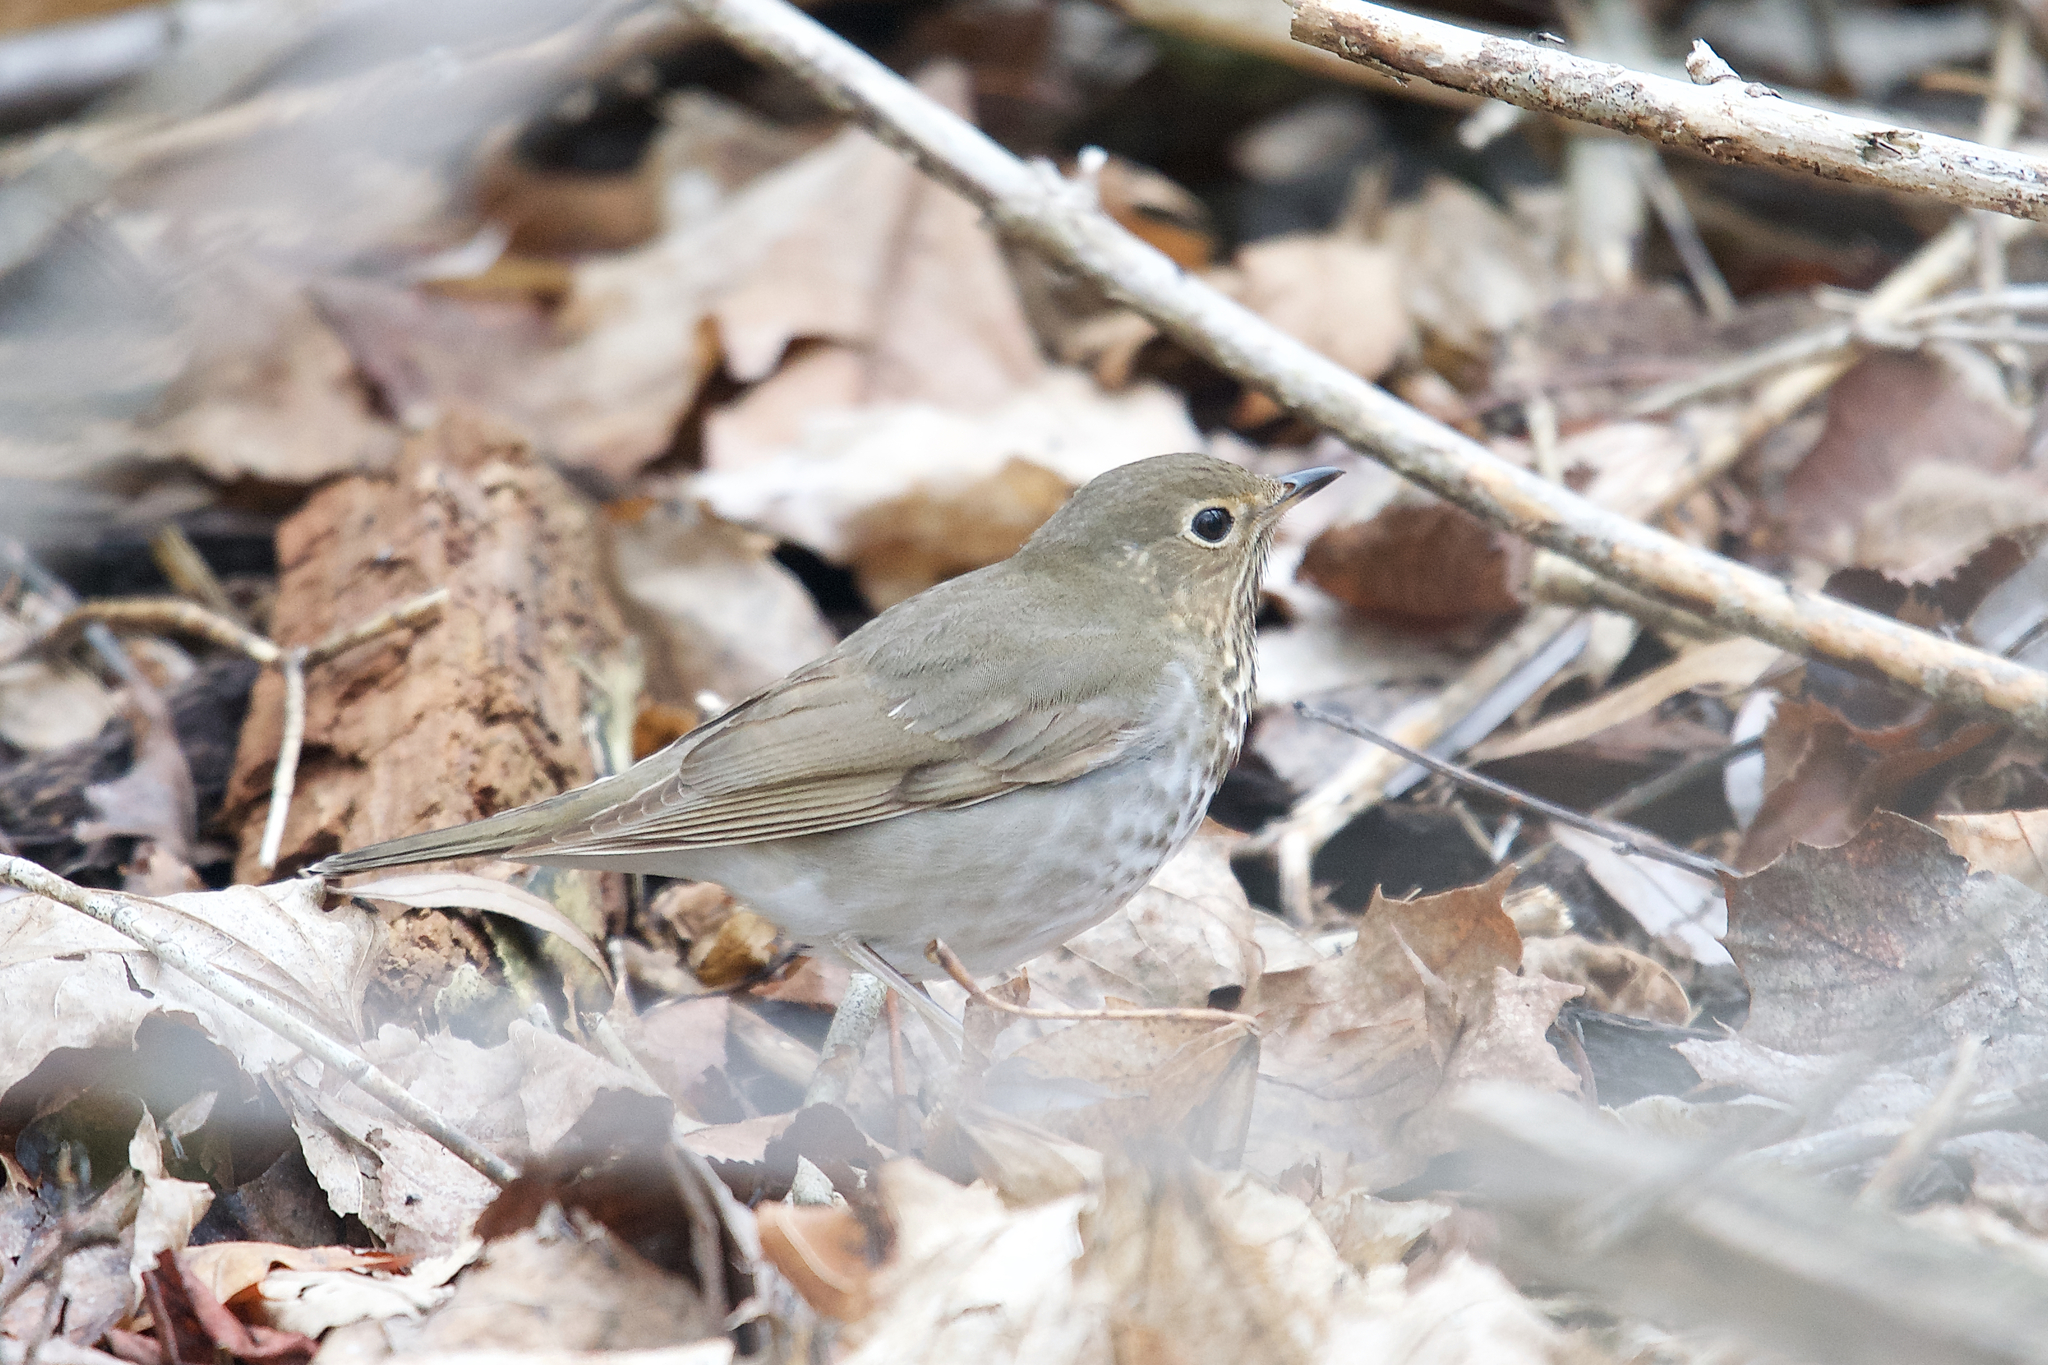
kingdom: Animalia
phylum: Chordata
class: Aves
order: Passeriformes
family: Turdidae
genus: Catharus
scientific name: Catharus ustulatus
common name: Swainson's thrush
